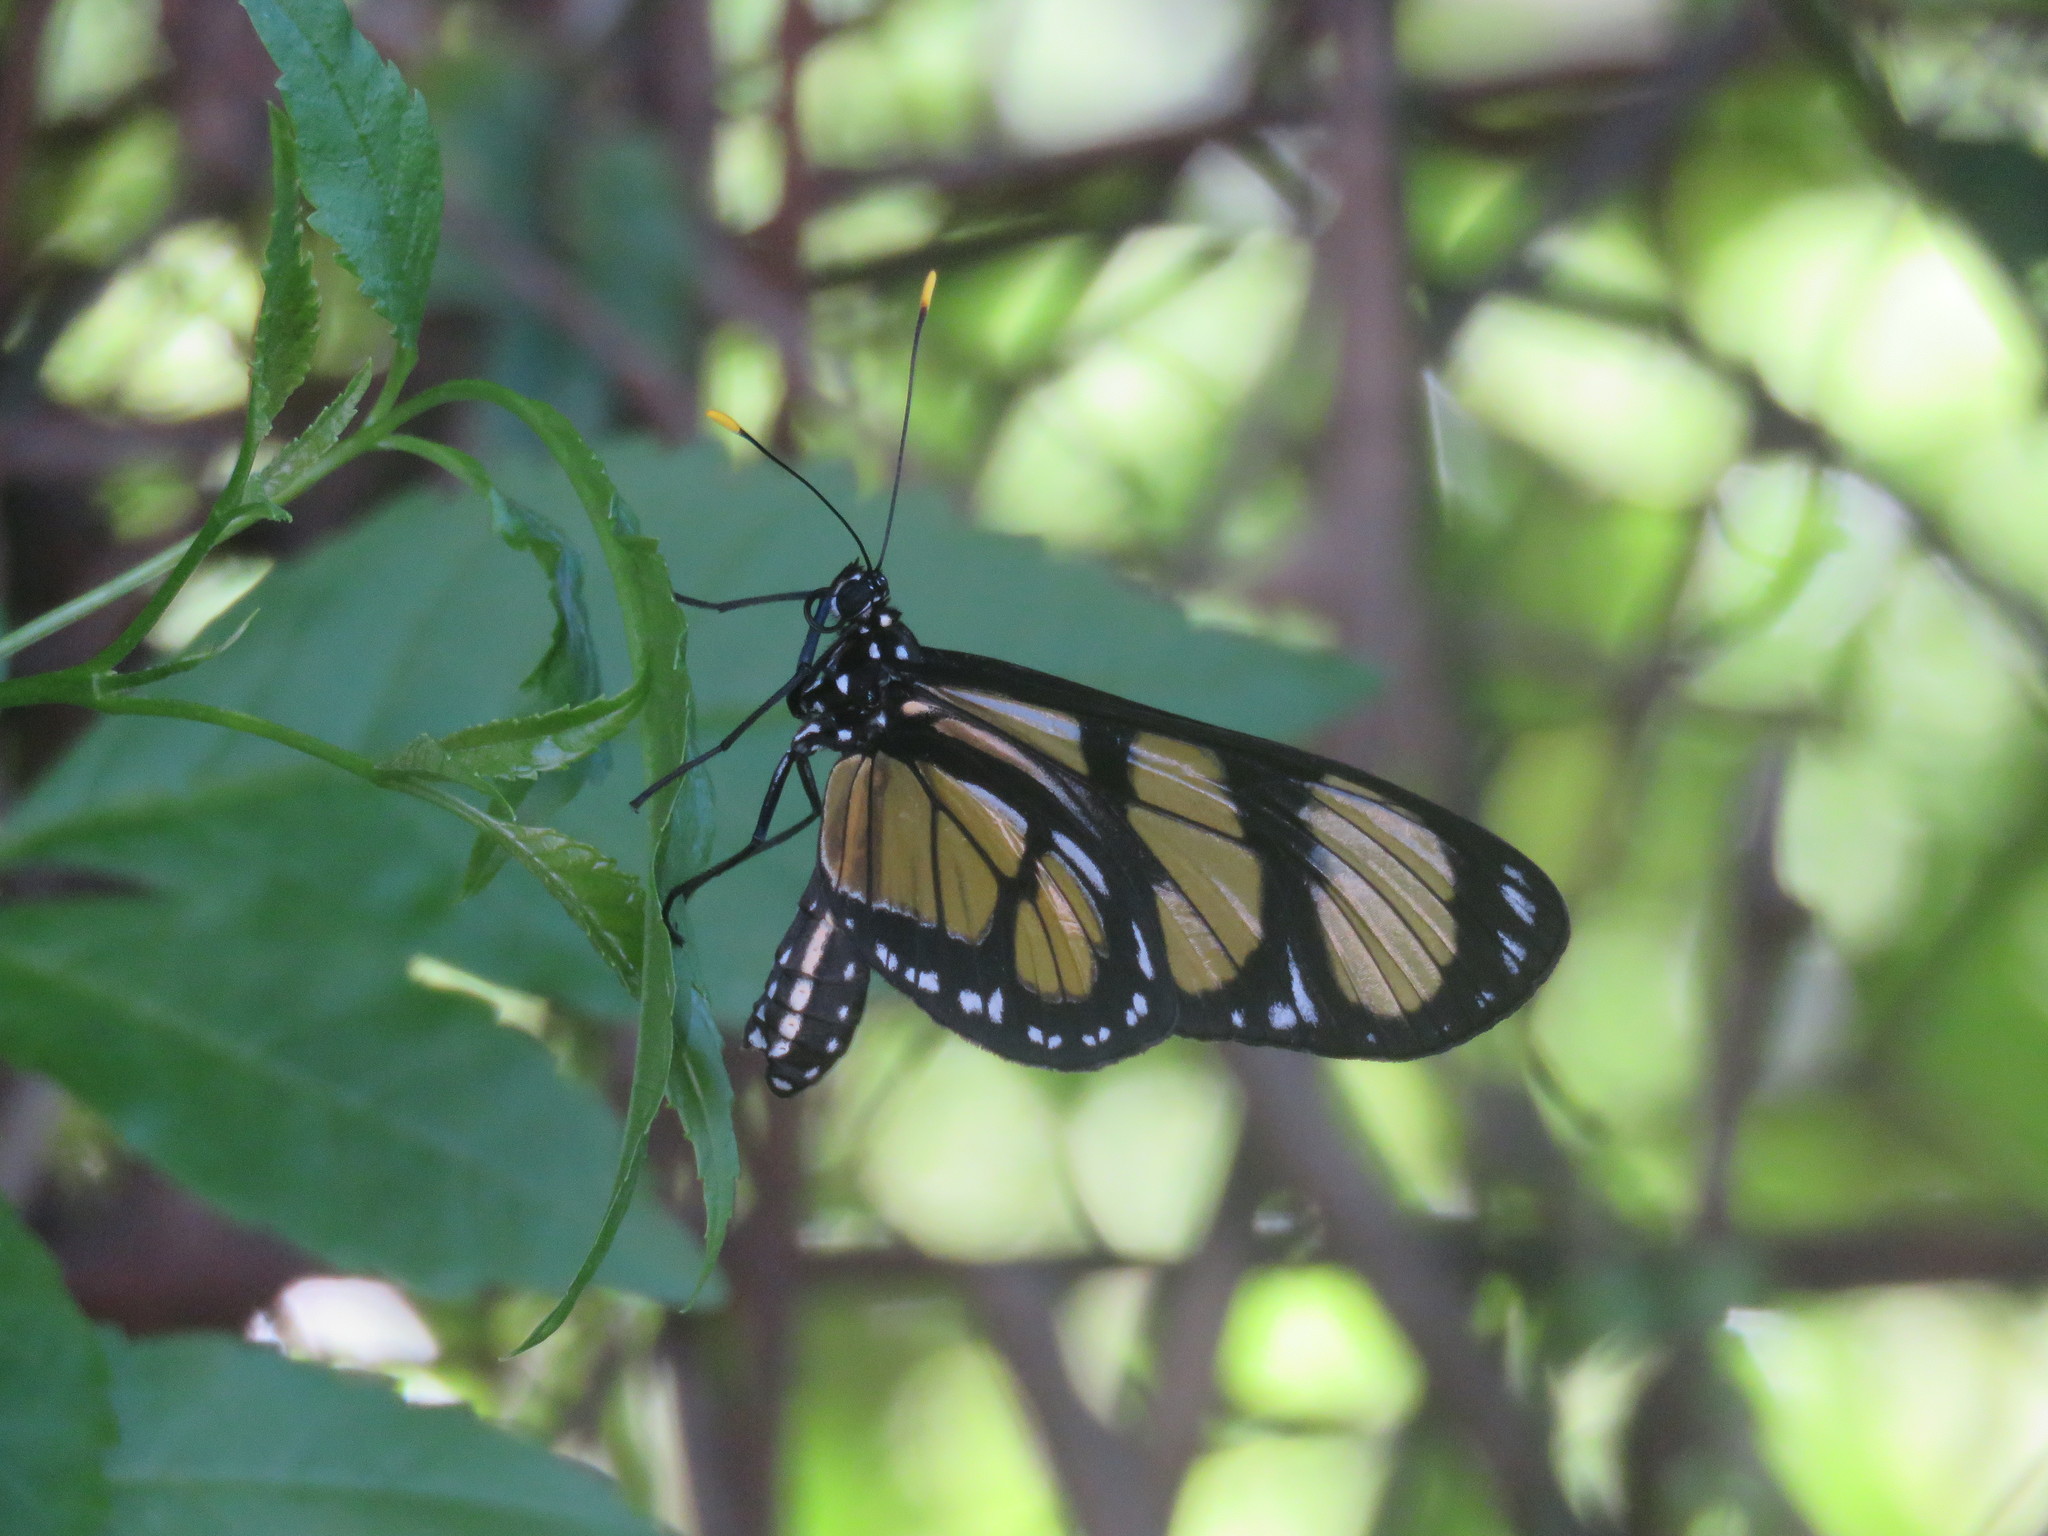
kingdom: Animalia
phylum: Arthropoda
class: Insecta
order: Lepidoptera
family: Nymphalidae
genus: Methona
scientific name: Methona themisto
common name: Themisto amberwing
